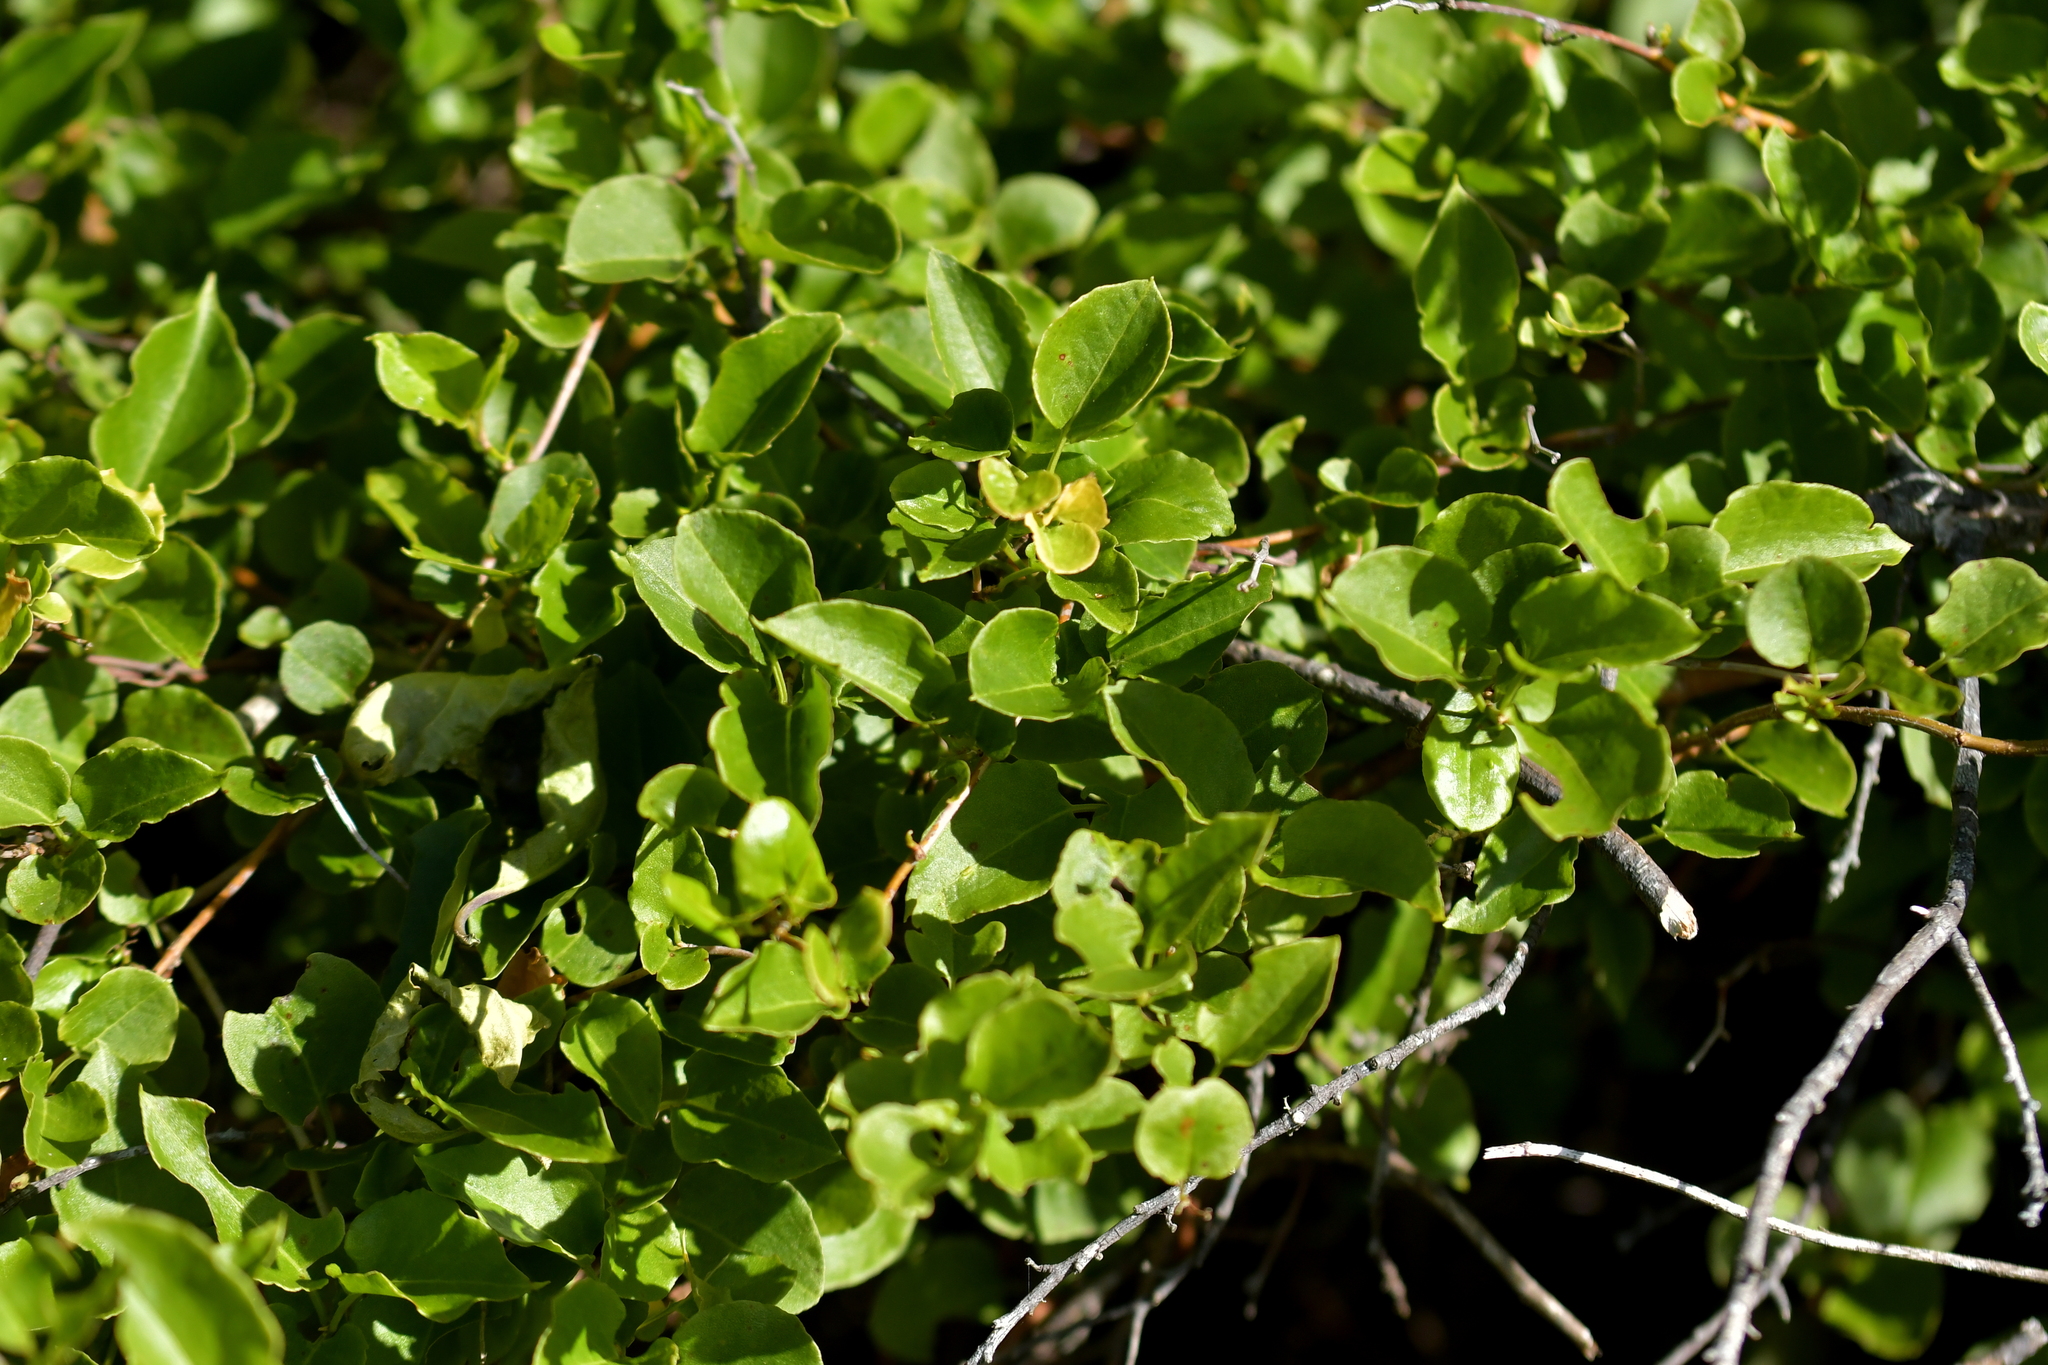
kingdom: Plantae
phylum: Tracheophyta
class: Magnoliopsida
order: Caryophyllales
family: Polygonaceae
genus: Muehlenbeckia
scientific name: Muehlenbeckia australis
